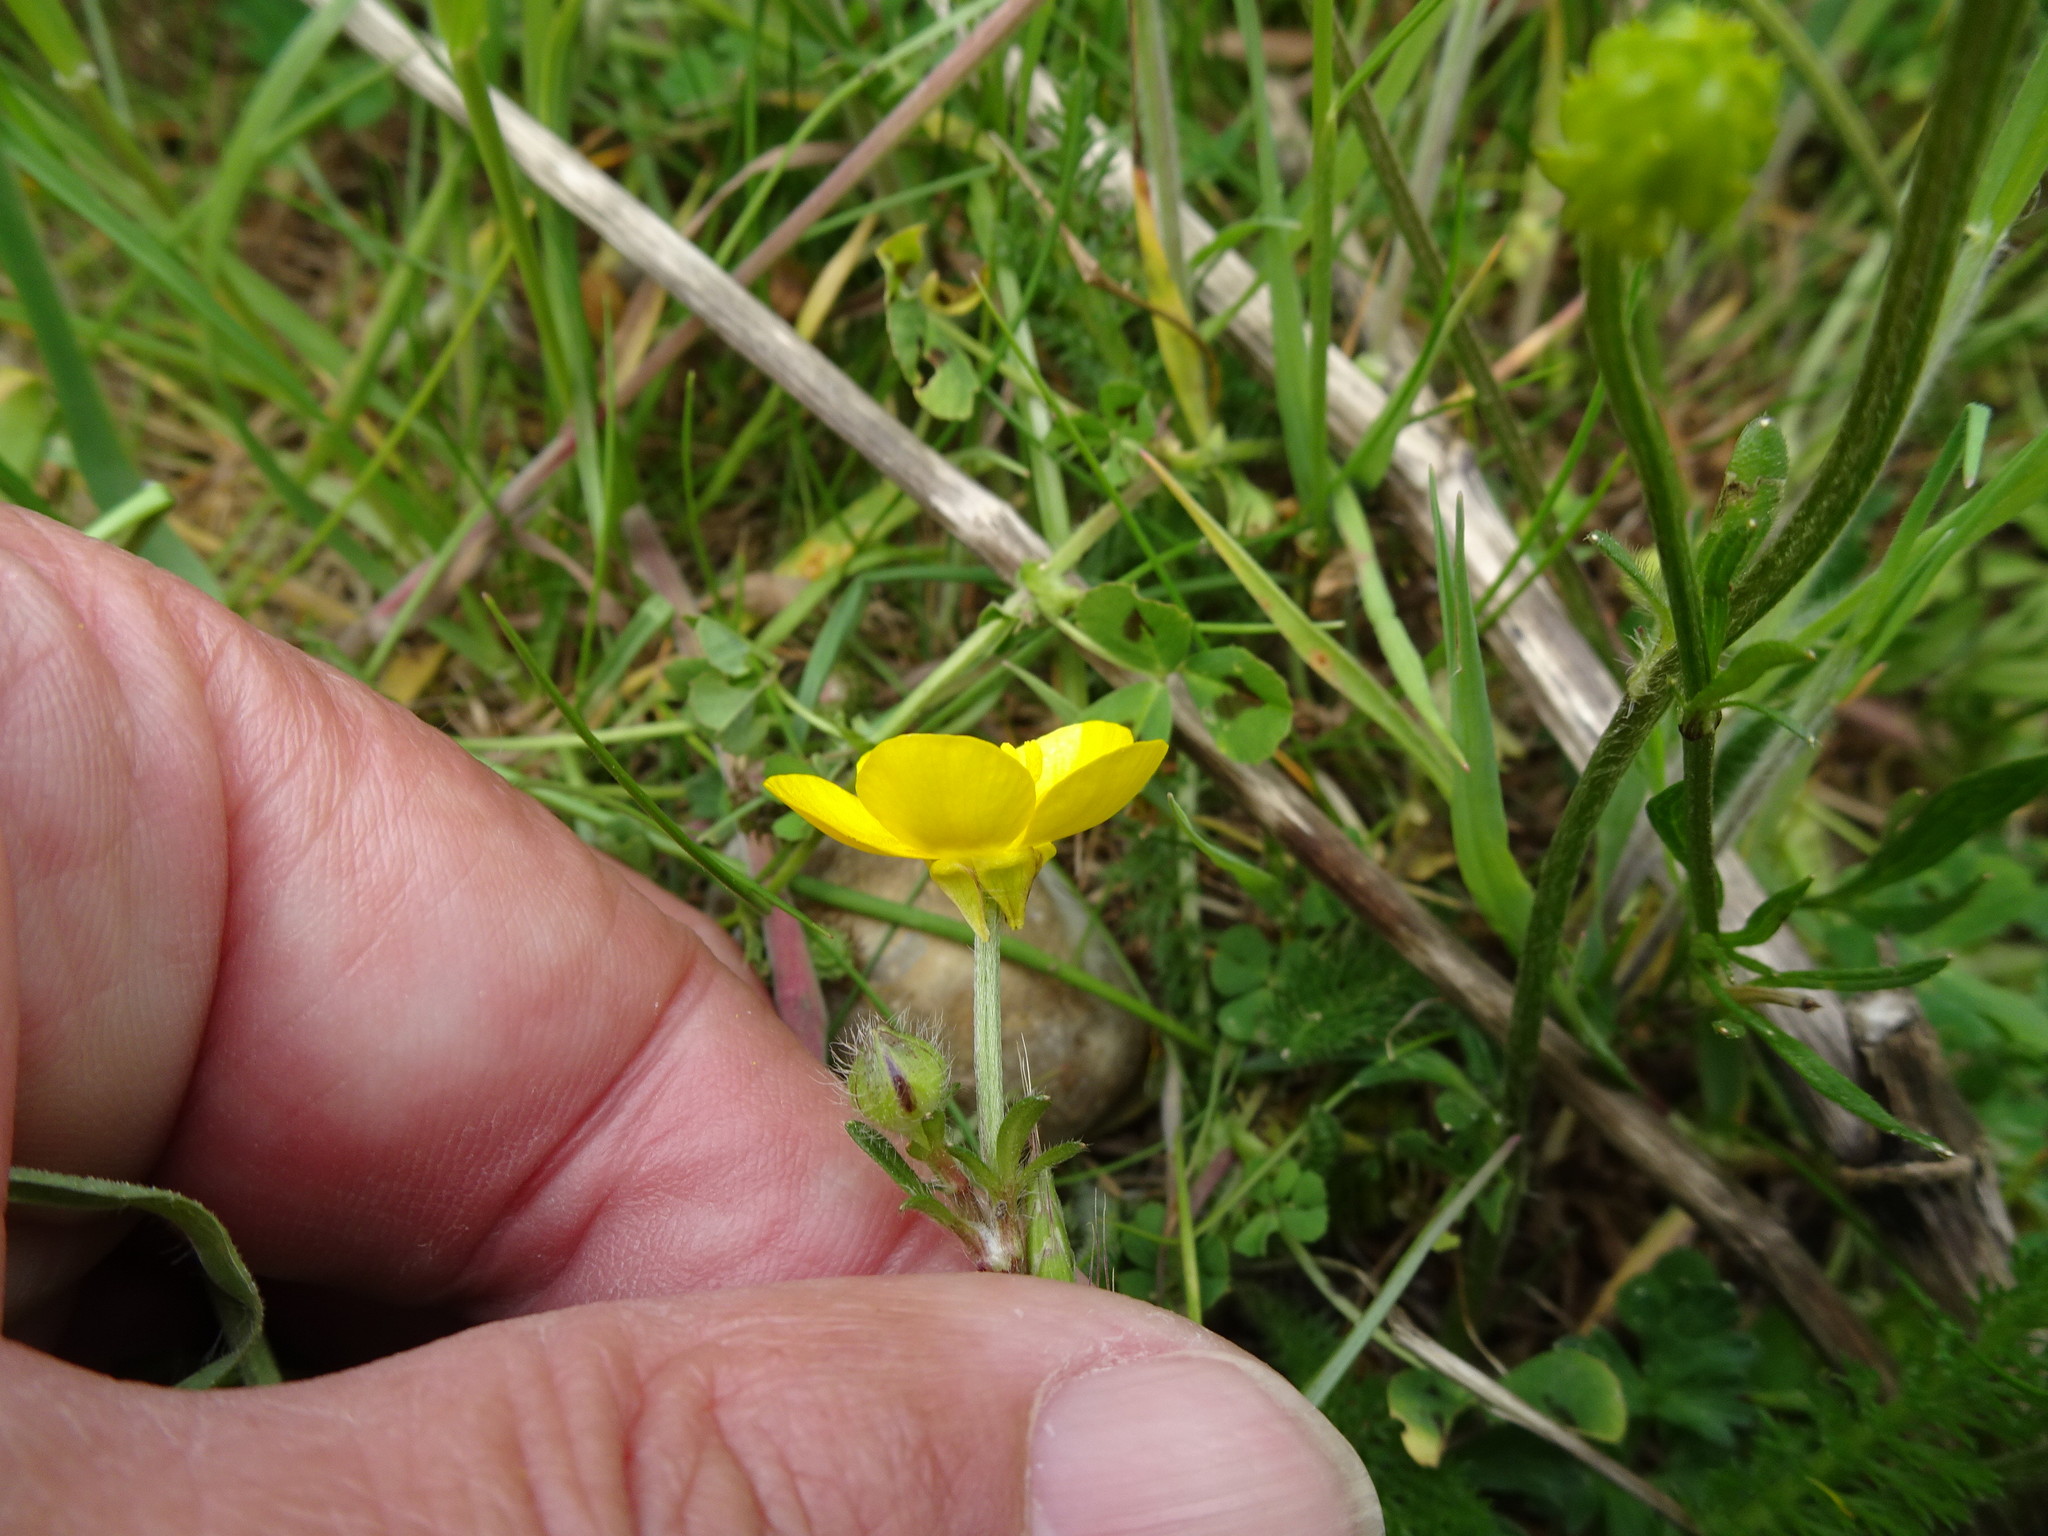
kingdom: Plantae
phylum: Tracheophyta
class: Magnoliopsida
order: Ranunculales
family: Ranunculaceae
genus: Ranunculus
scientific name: Ranunculus bulbosus
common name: Bulbous buttercup
